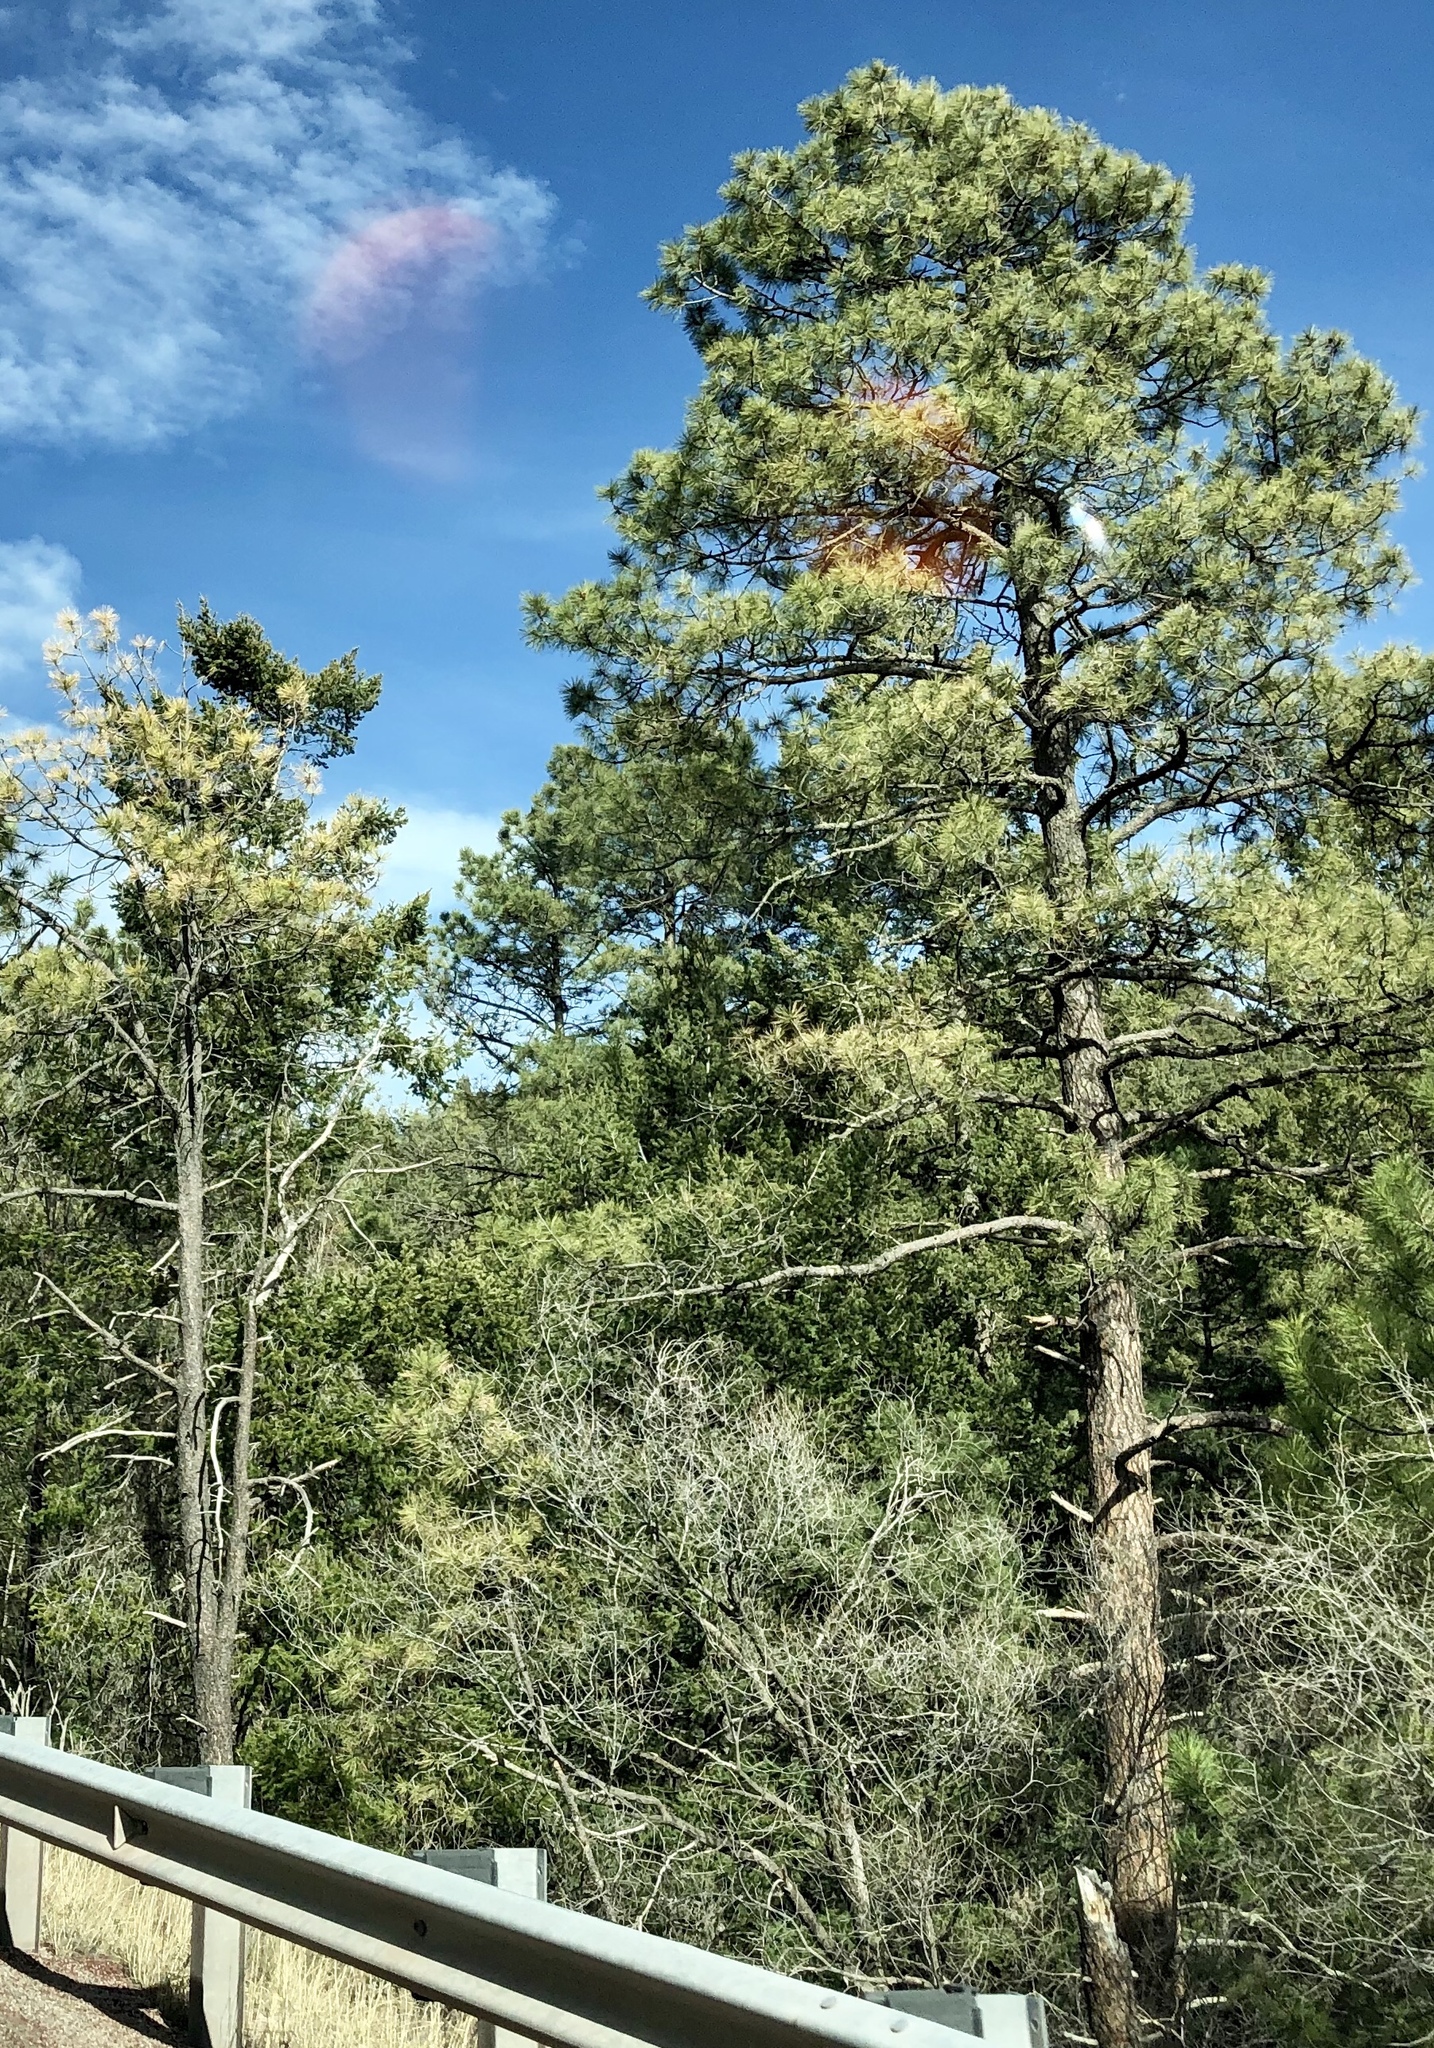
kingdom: Plantae
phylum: Tracheophyta
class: Pinopsida
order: Pinales
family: Pinaceae
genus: Pinus
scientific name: Pinus ponderosa
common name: Western yellow-pine
